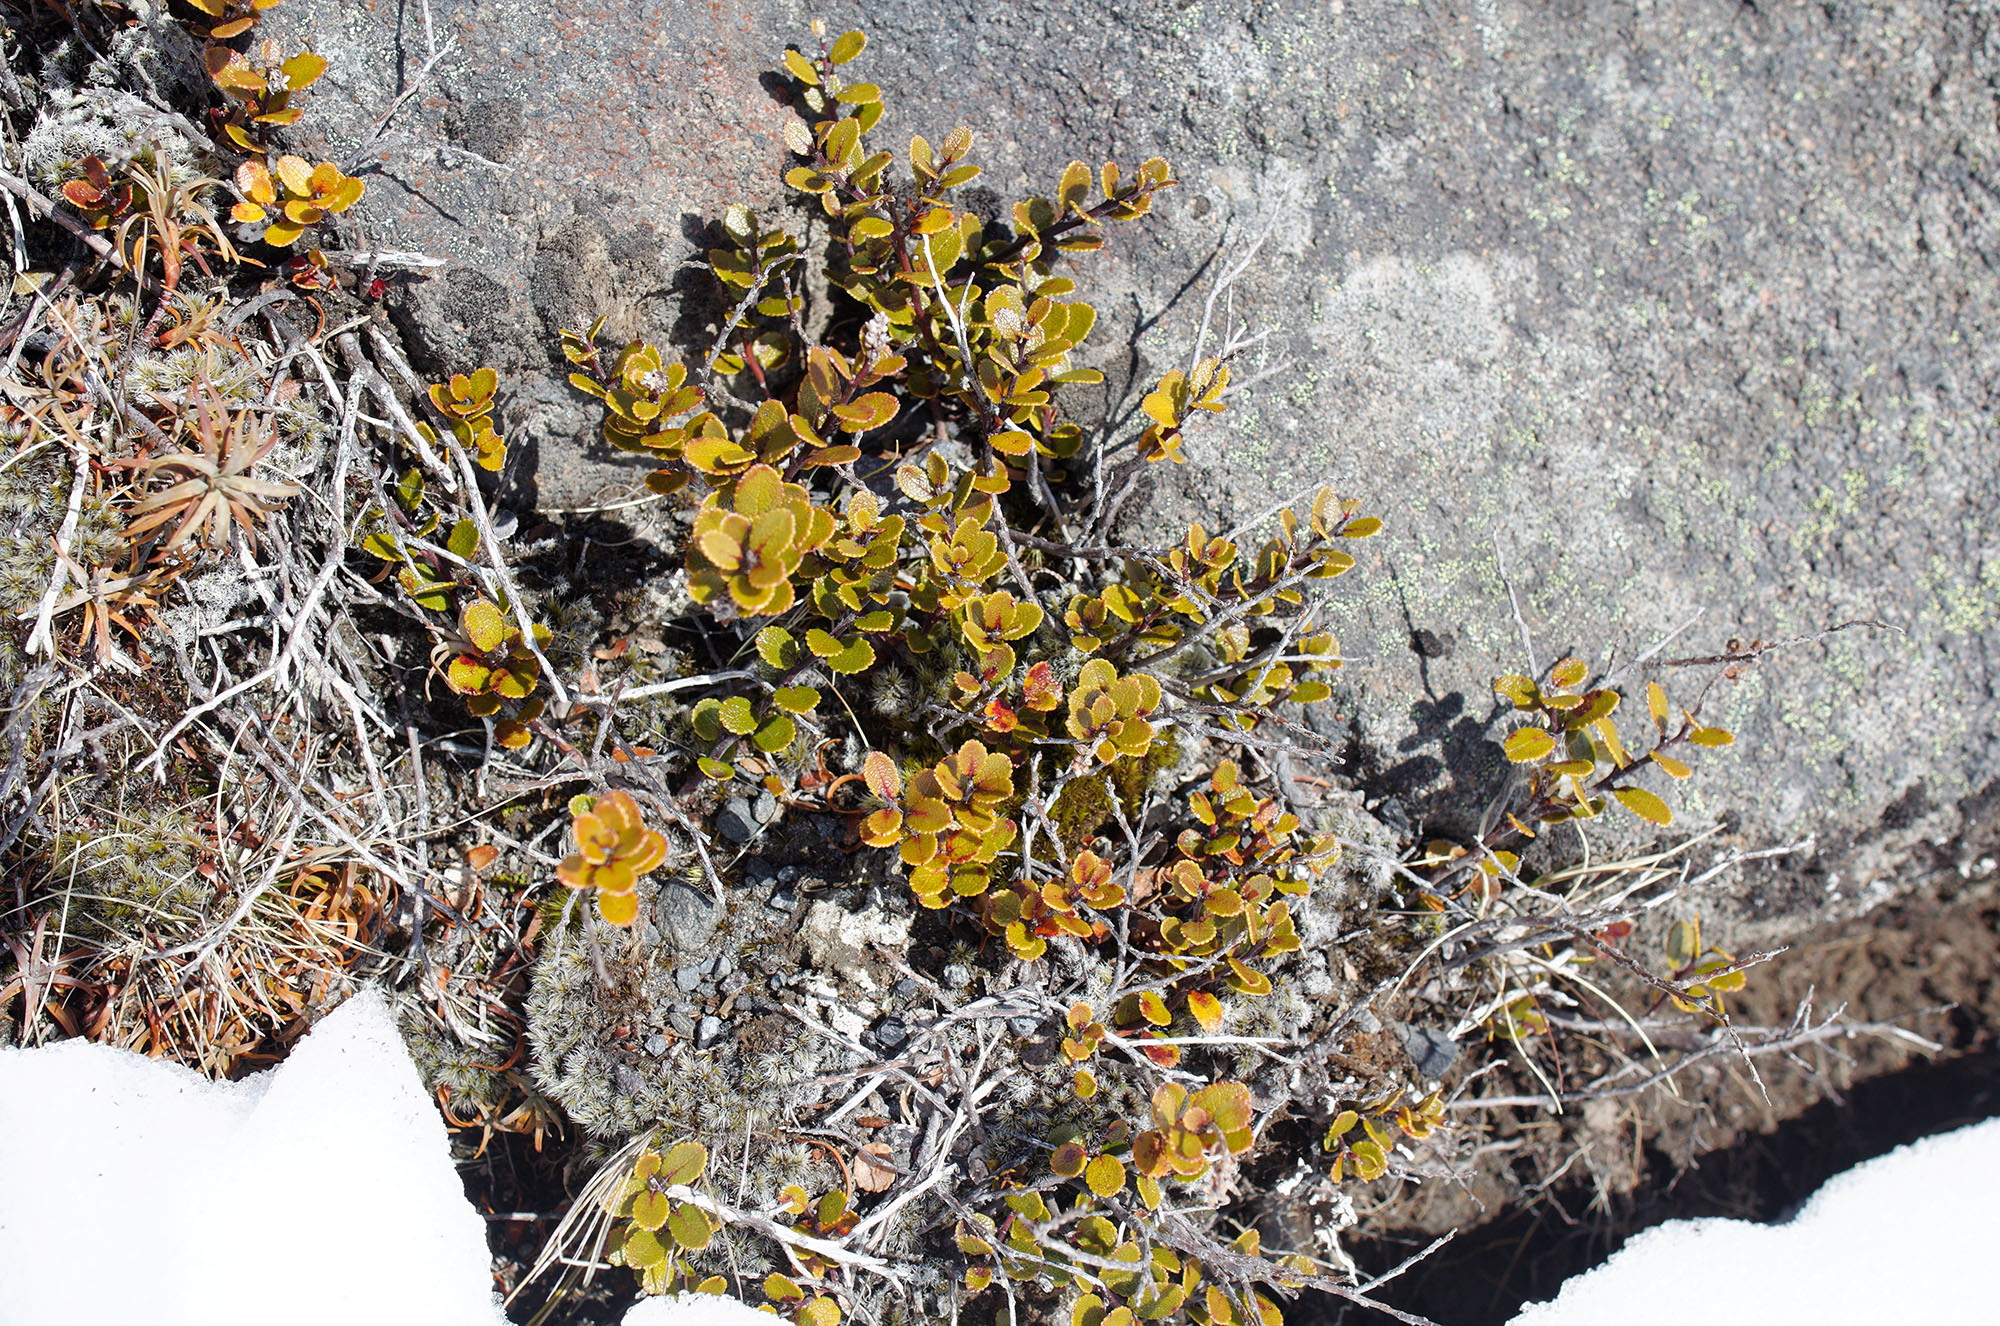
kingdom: Plantae
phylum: Tracheophyta
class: Magnoliopsida
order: Ericales
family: Ericaceae
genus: Gaultheria
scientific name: Gaultheria colensoi
